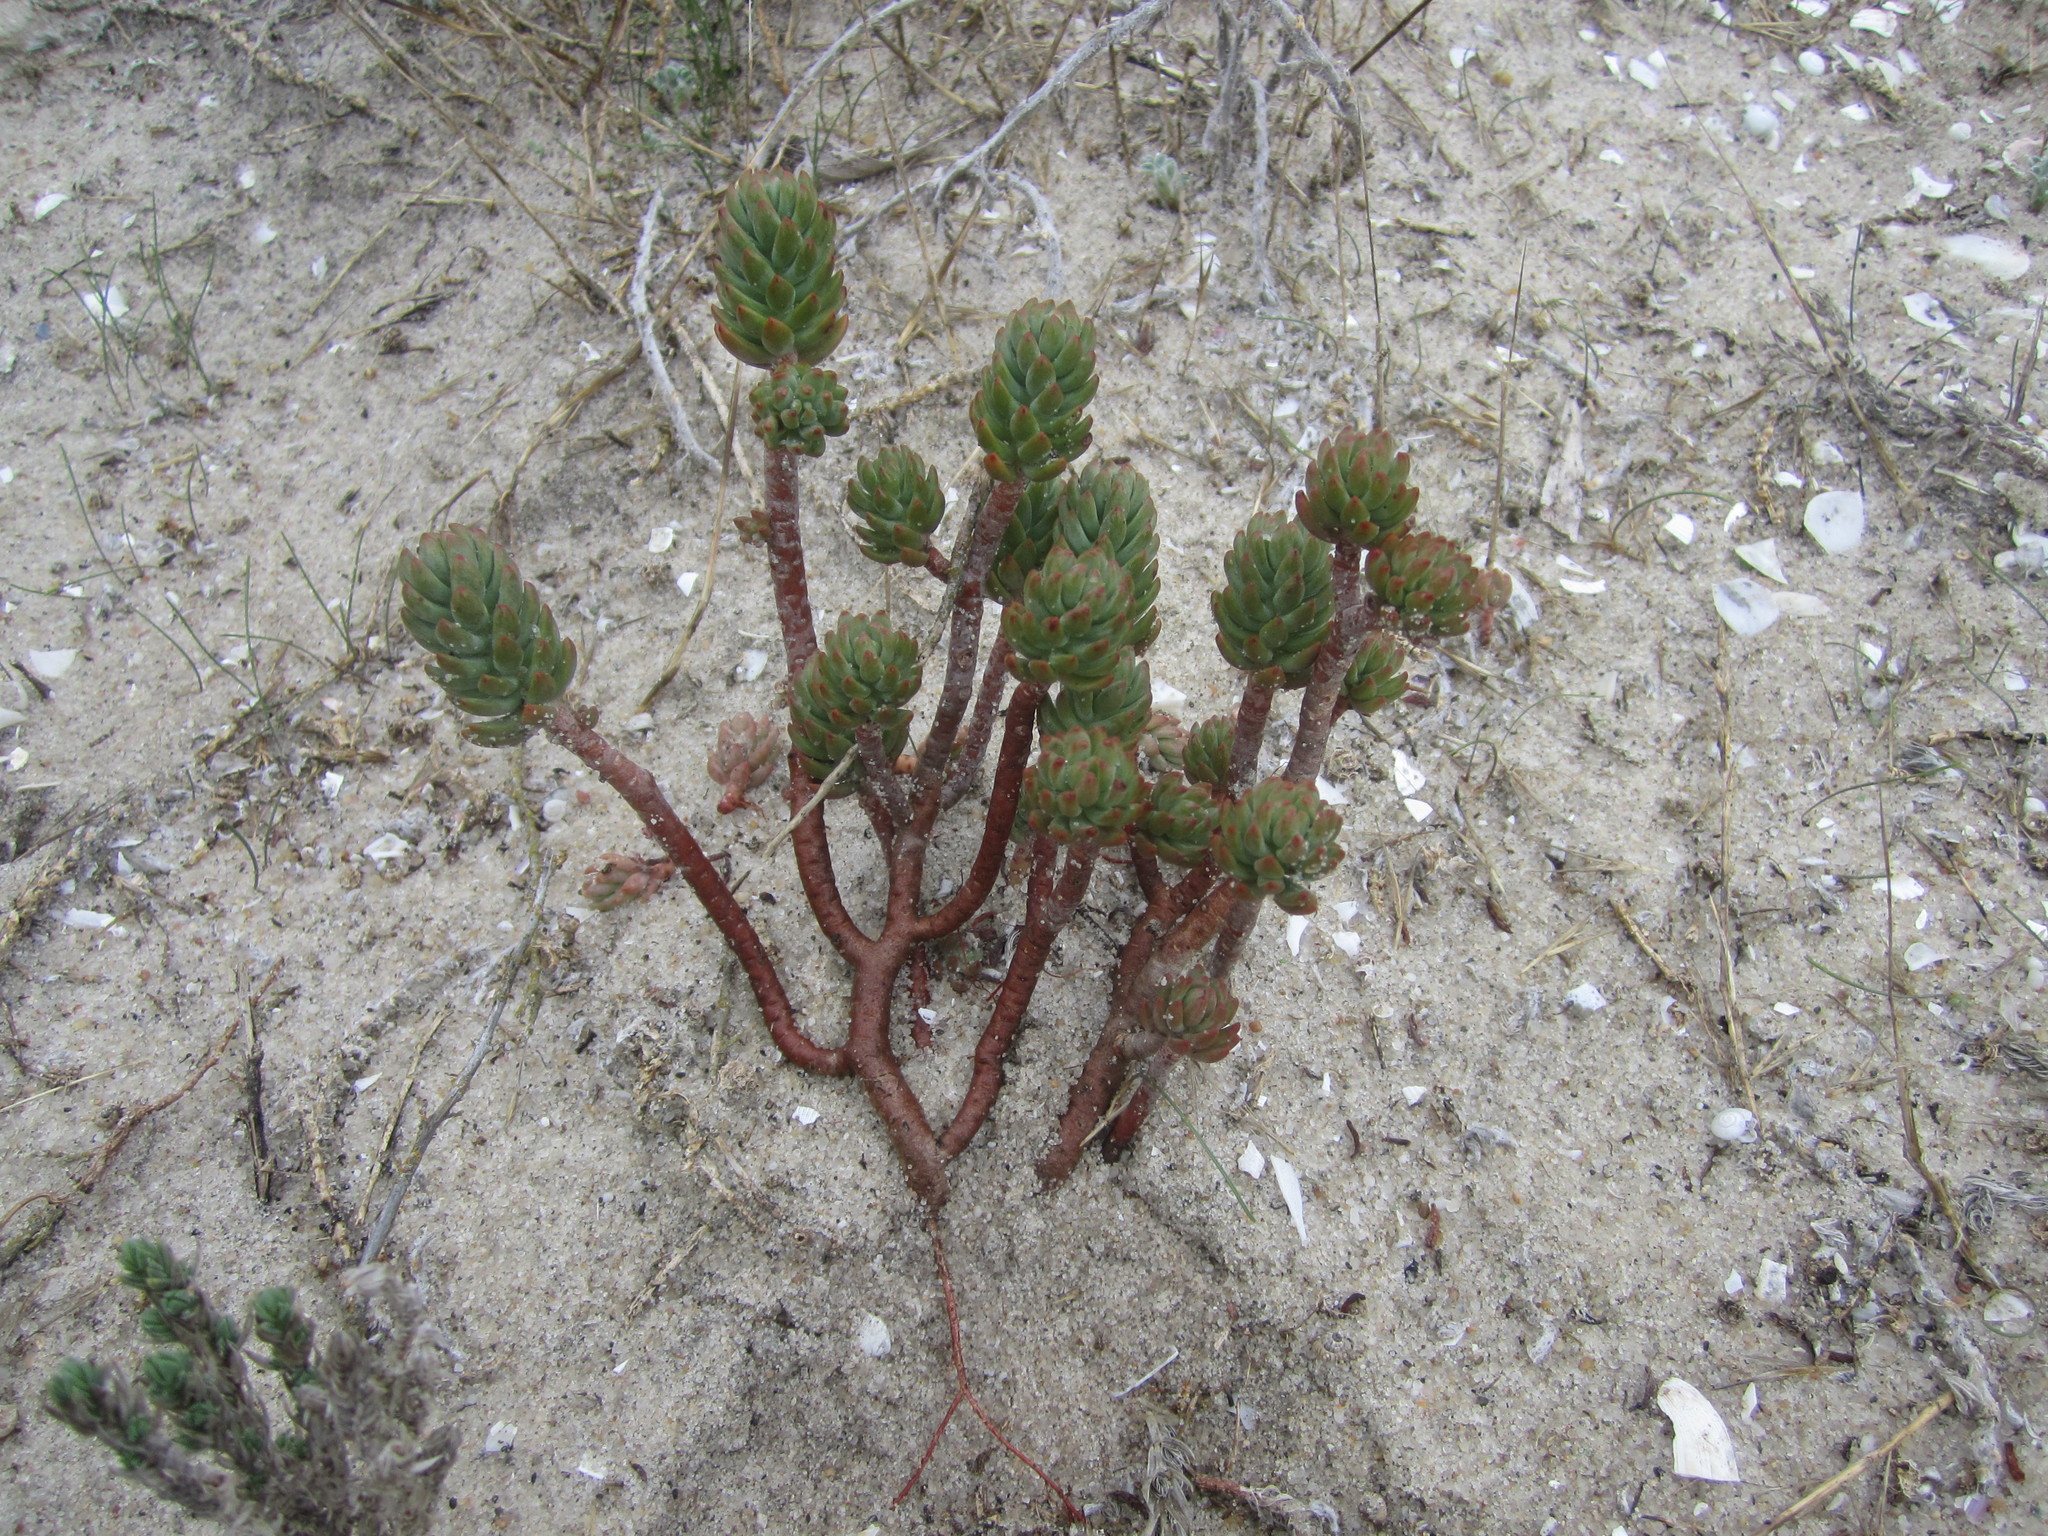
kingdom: Plantae
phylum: Tracheophyta
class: Magnoliopsida
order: Saxifragales
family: Crassulaceae
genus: Petrosedum
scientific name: Petrosedum sediforme
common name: Pale stonecrop
